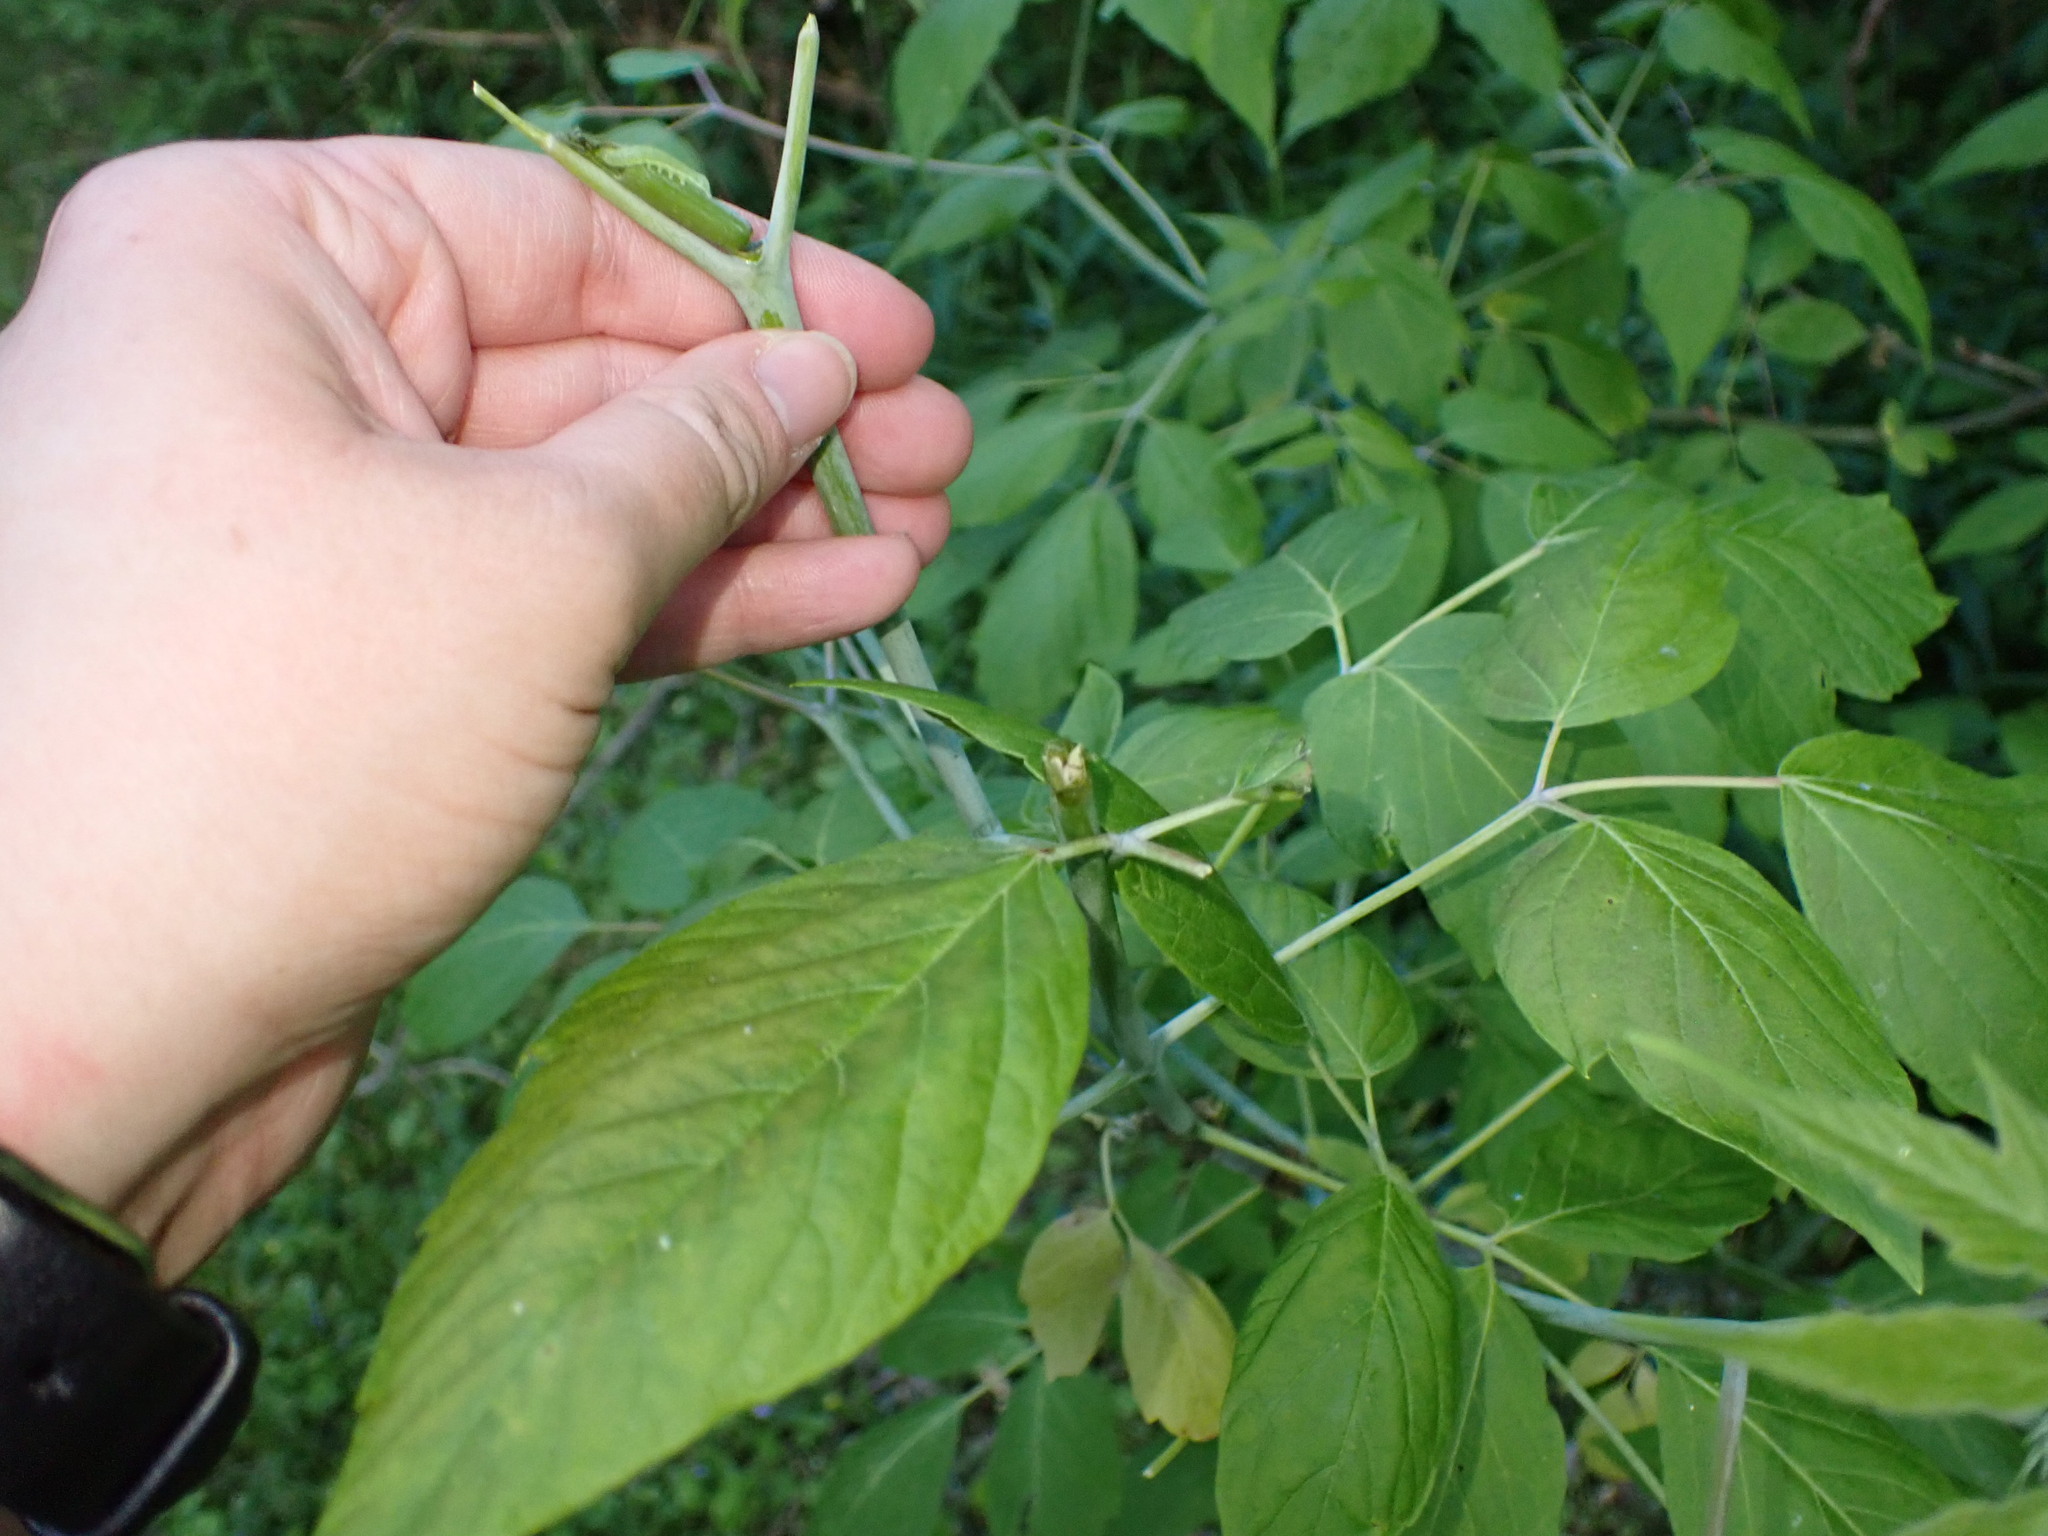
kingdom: Plantae
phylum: Tracheophyta
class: Magnoliopsida
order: Sapindales
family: Sapindaceae
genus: Acer
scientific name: Acer negundo
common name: Ashleaf maple
